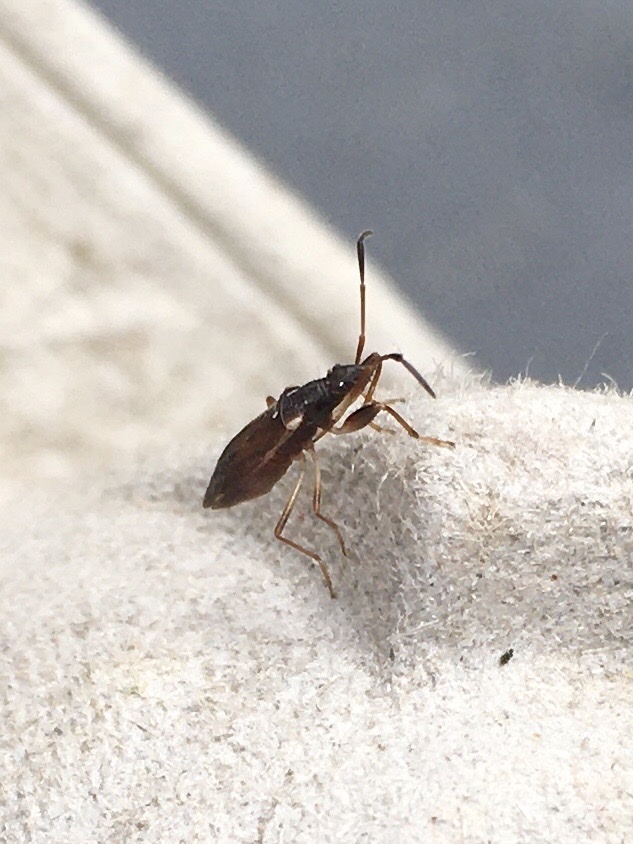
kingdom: Animalia
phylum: Arthropoda
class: Insecta
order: Hemiptera
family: Rhyparochromidae
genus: Pseudocnemodus
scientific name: Pseudocnemodus canadensis
